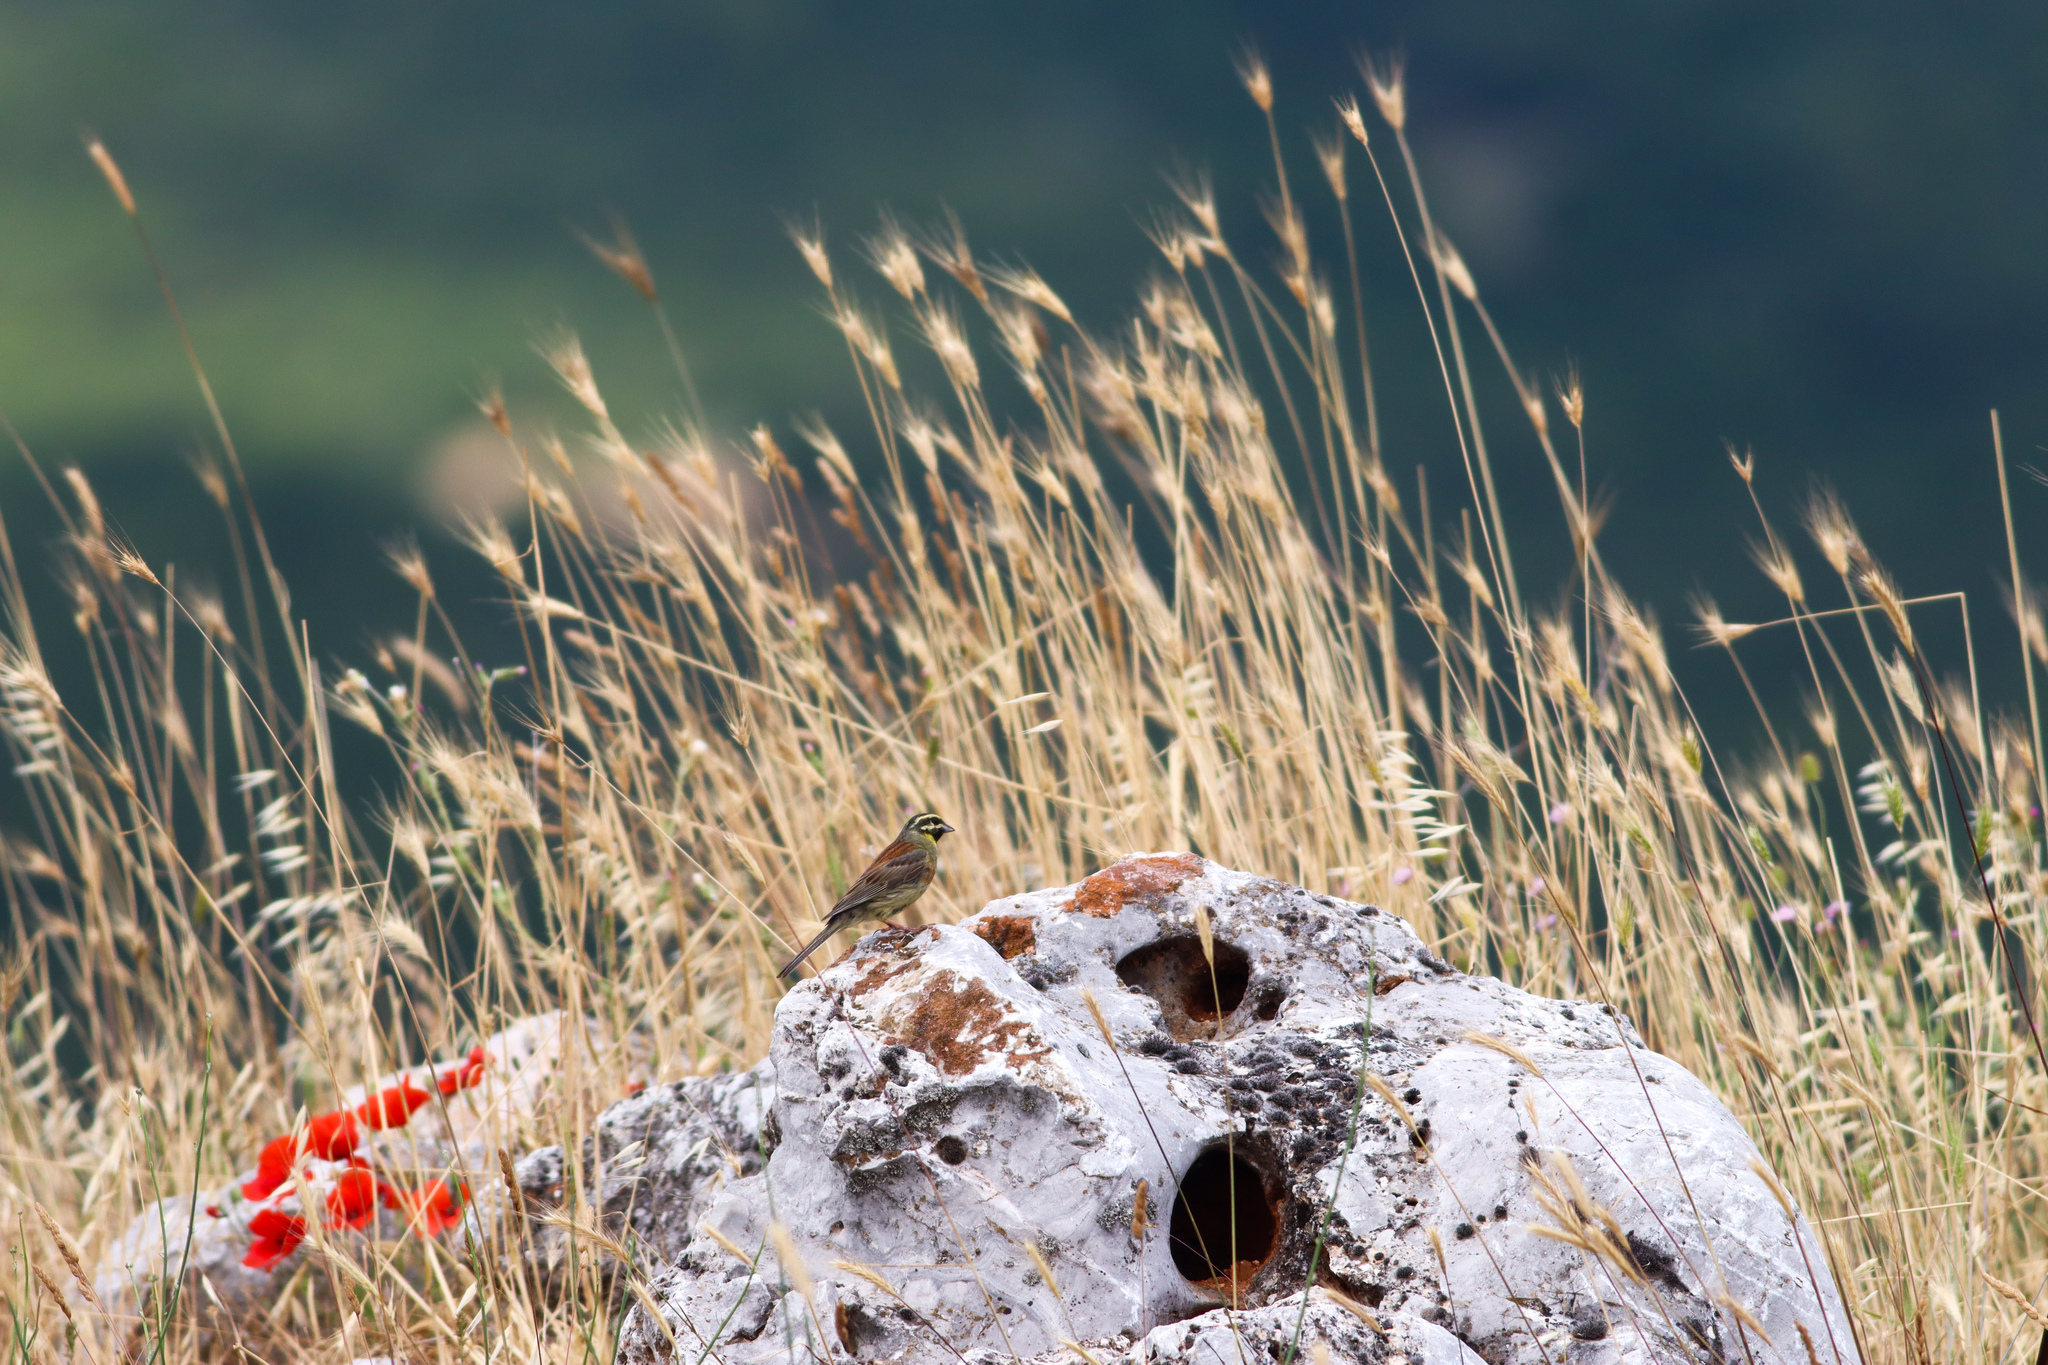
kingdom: Animalia
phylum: Chordata
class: Aves
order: Passeriformes
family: Emberizidae
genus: Emberiza
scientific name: Emberiza cirlus
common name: Cirl bunting
